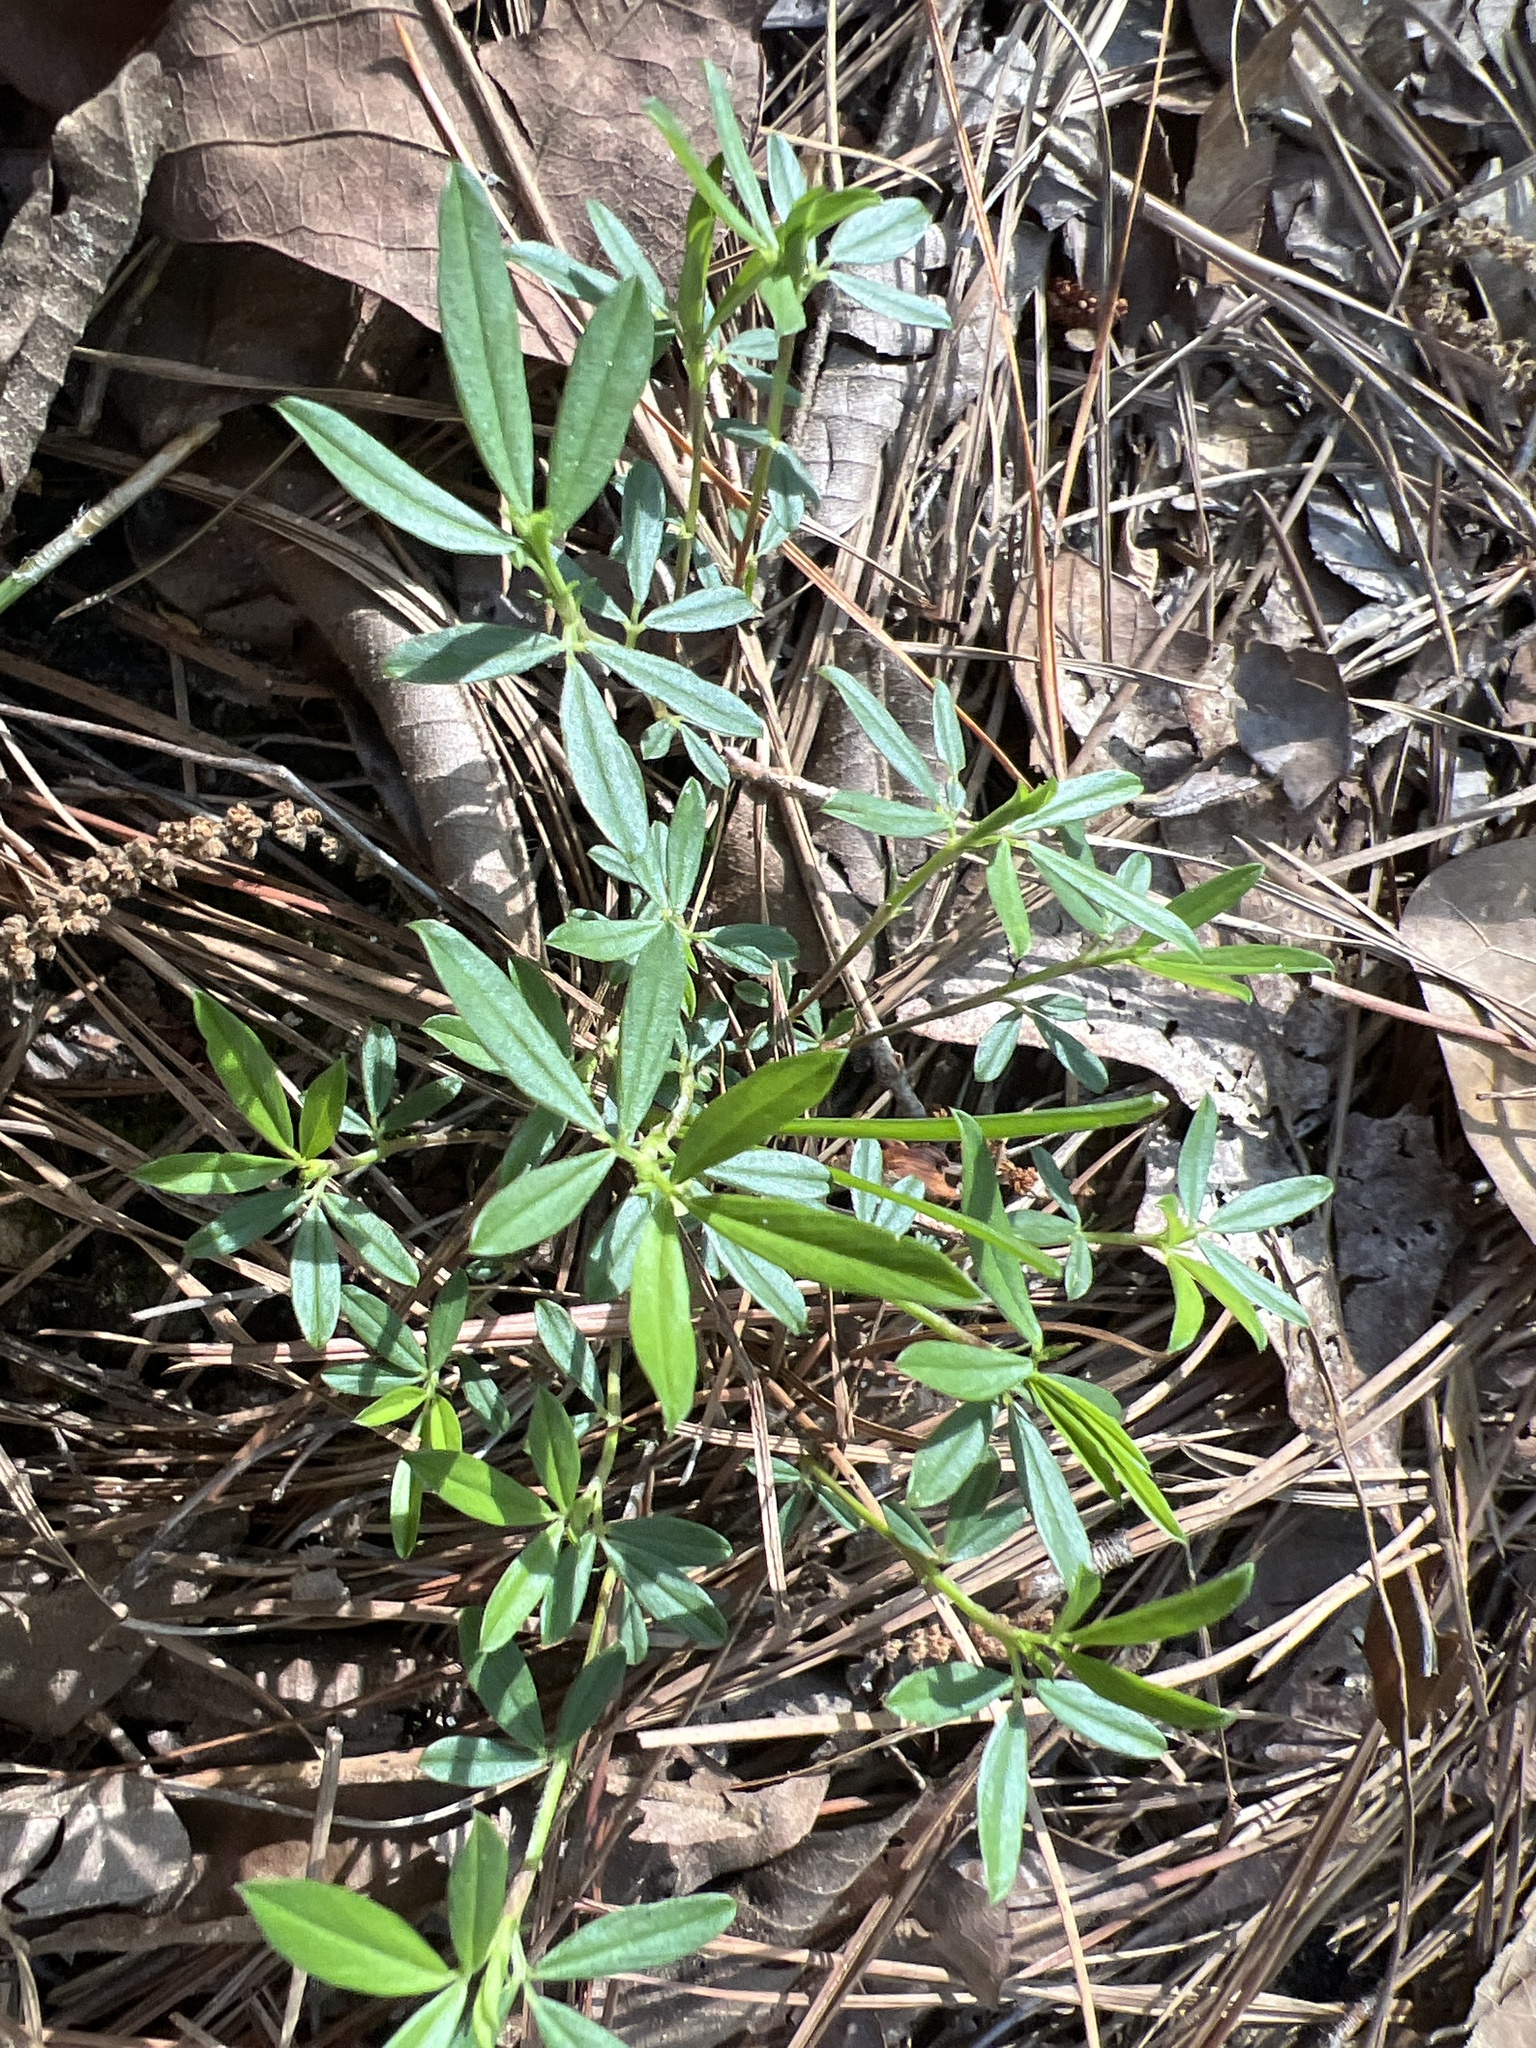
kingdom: Plantae
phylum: Tracheophyta
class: Magnoliopsida
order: Fabales
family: Fabaceae
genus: Stylosanthes
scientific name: Stylosanthes biflora
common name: Two-flower pencil-flower
